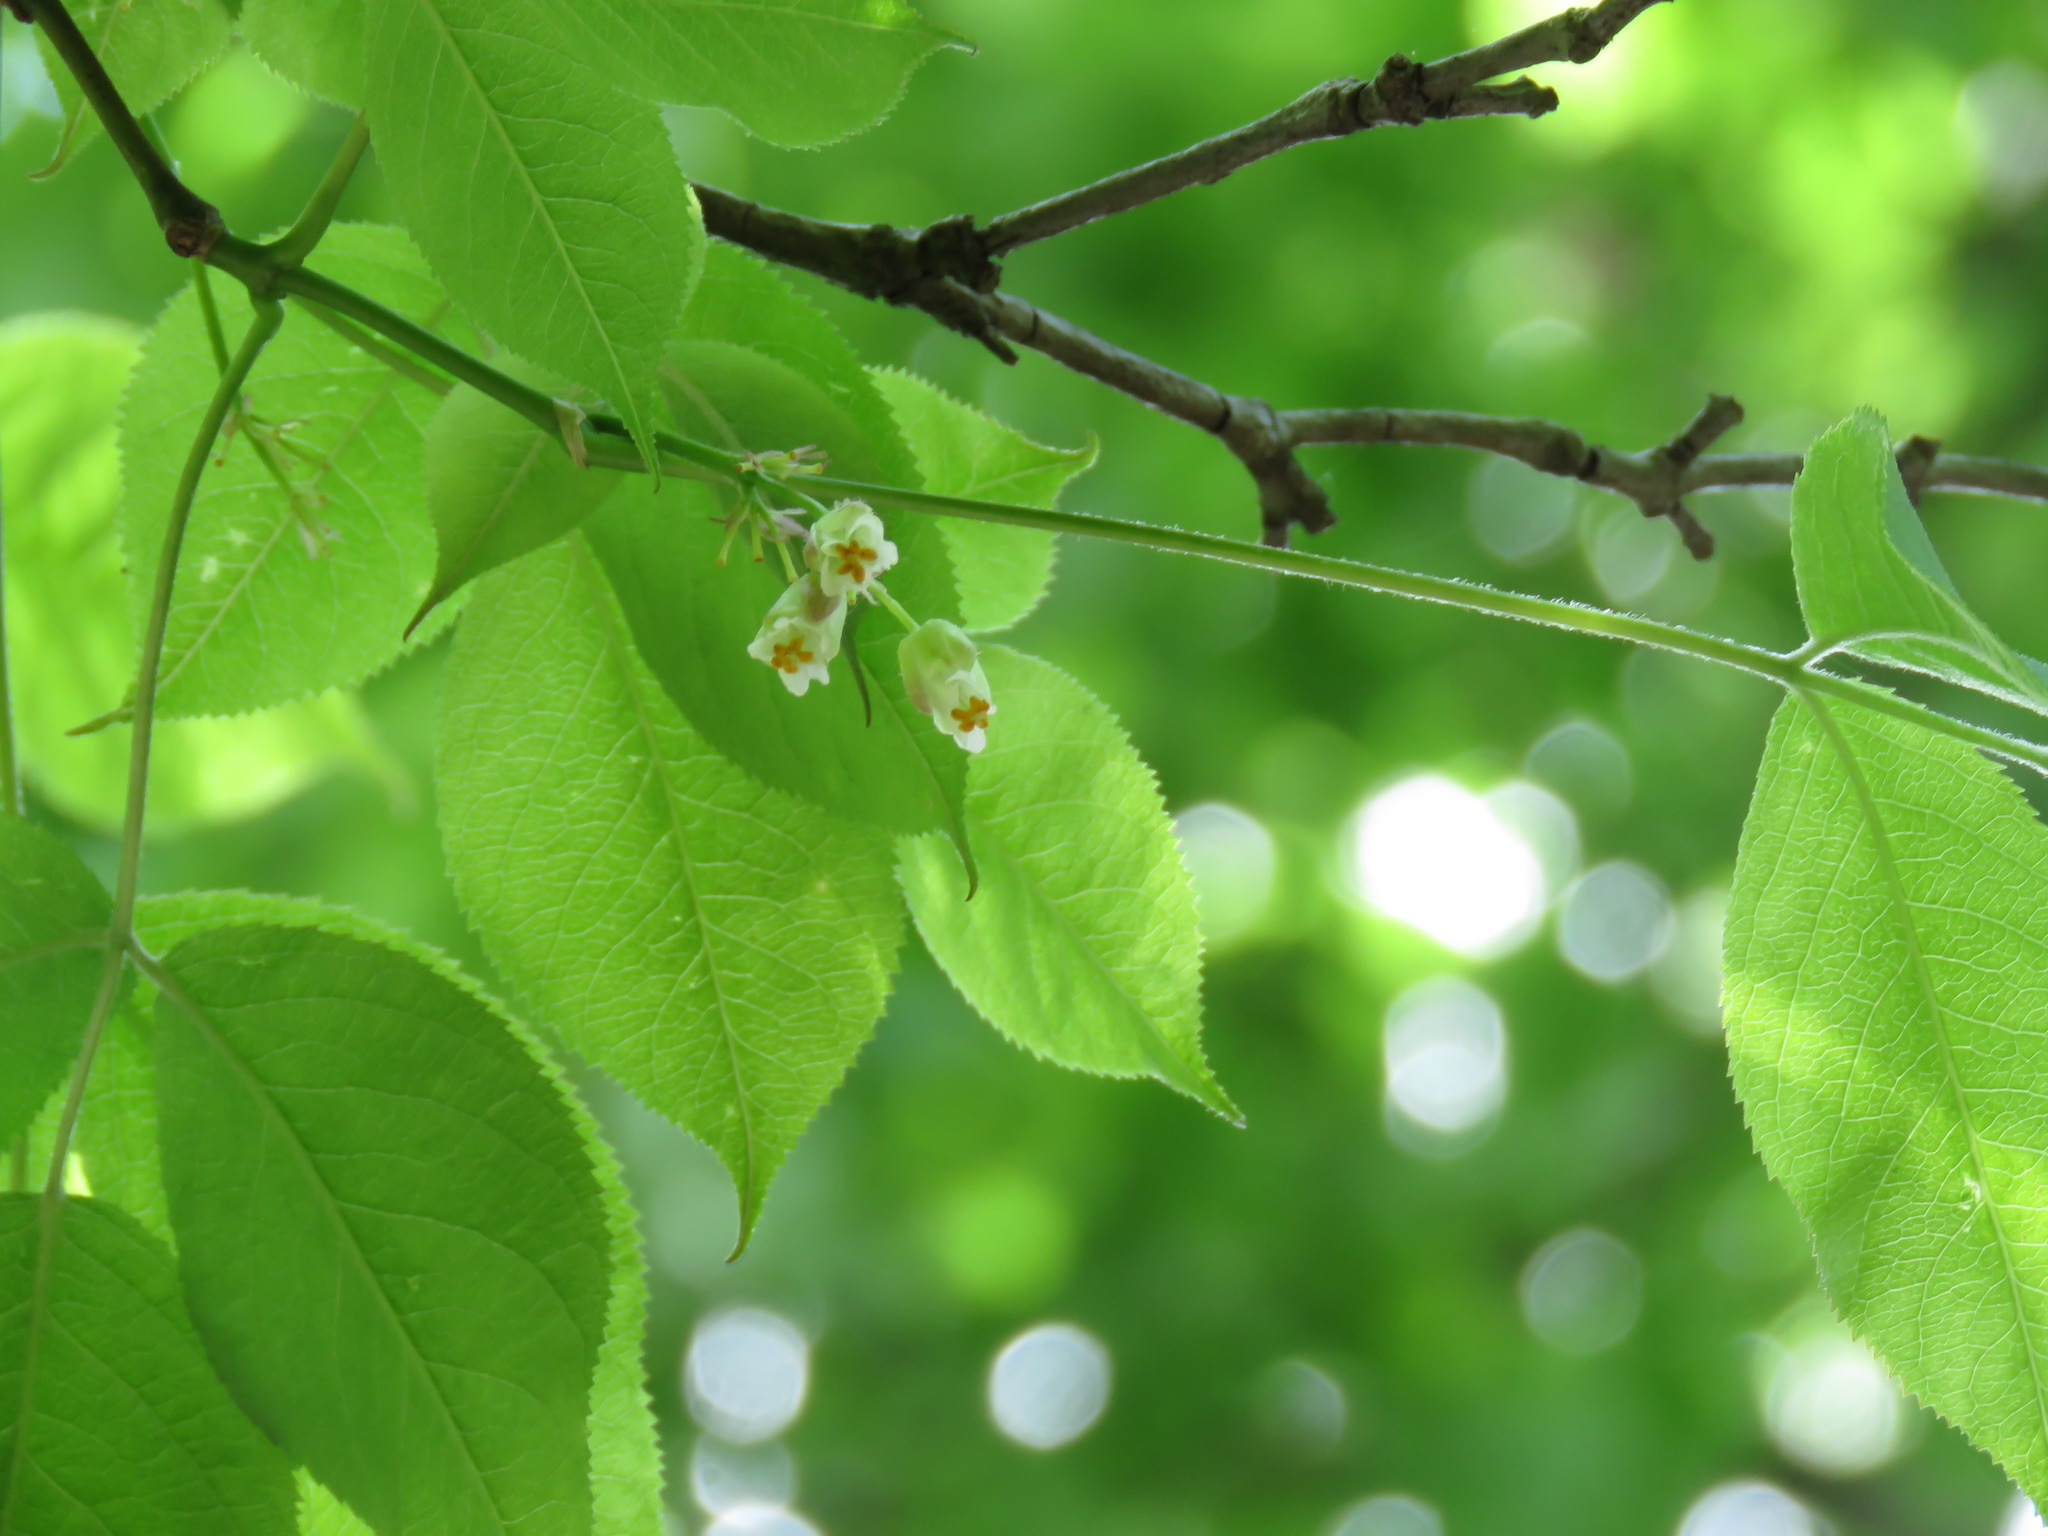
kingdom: Plantae
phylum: Tracheophyta
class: Magnoliopsida
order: Crossosomatales
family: Staphyleaceae
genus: Staphylea
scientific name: Staphylea trifolia
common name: American bladdernut
